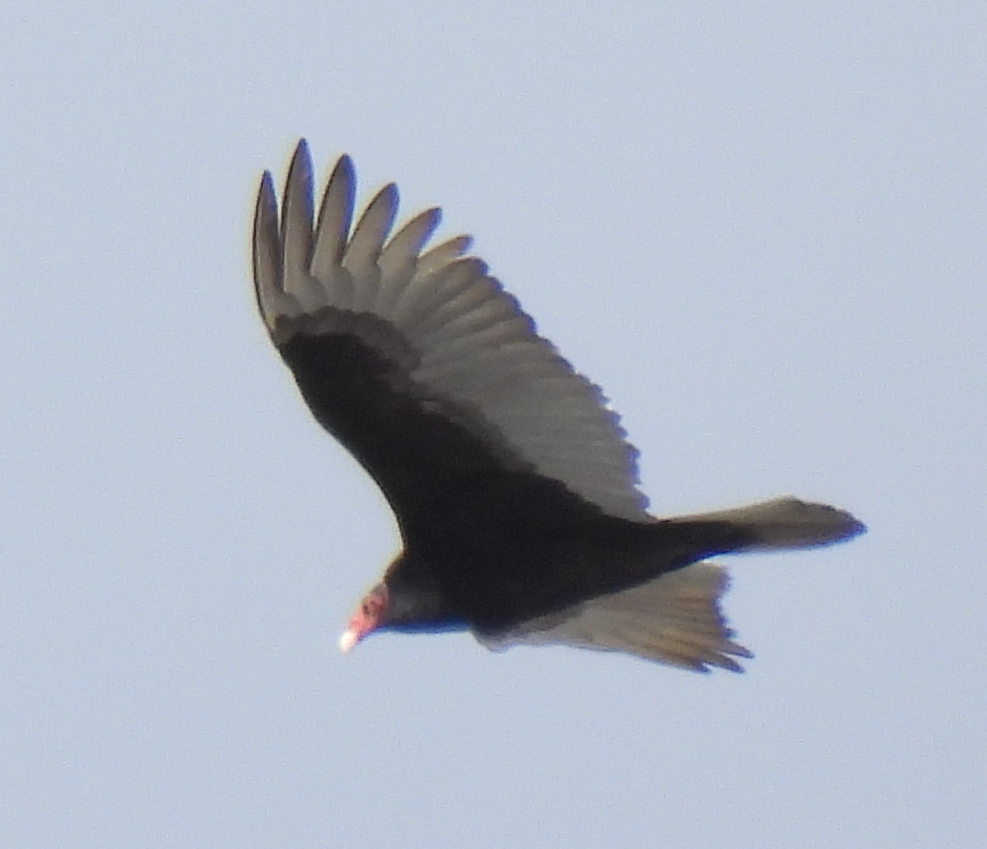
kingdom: Animalia
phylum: Chordata
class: Aves
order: Accipitriformes
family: Cathartidae
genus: Cathartes
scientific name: Cathartes aura
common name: Turkey vulture
